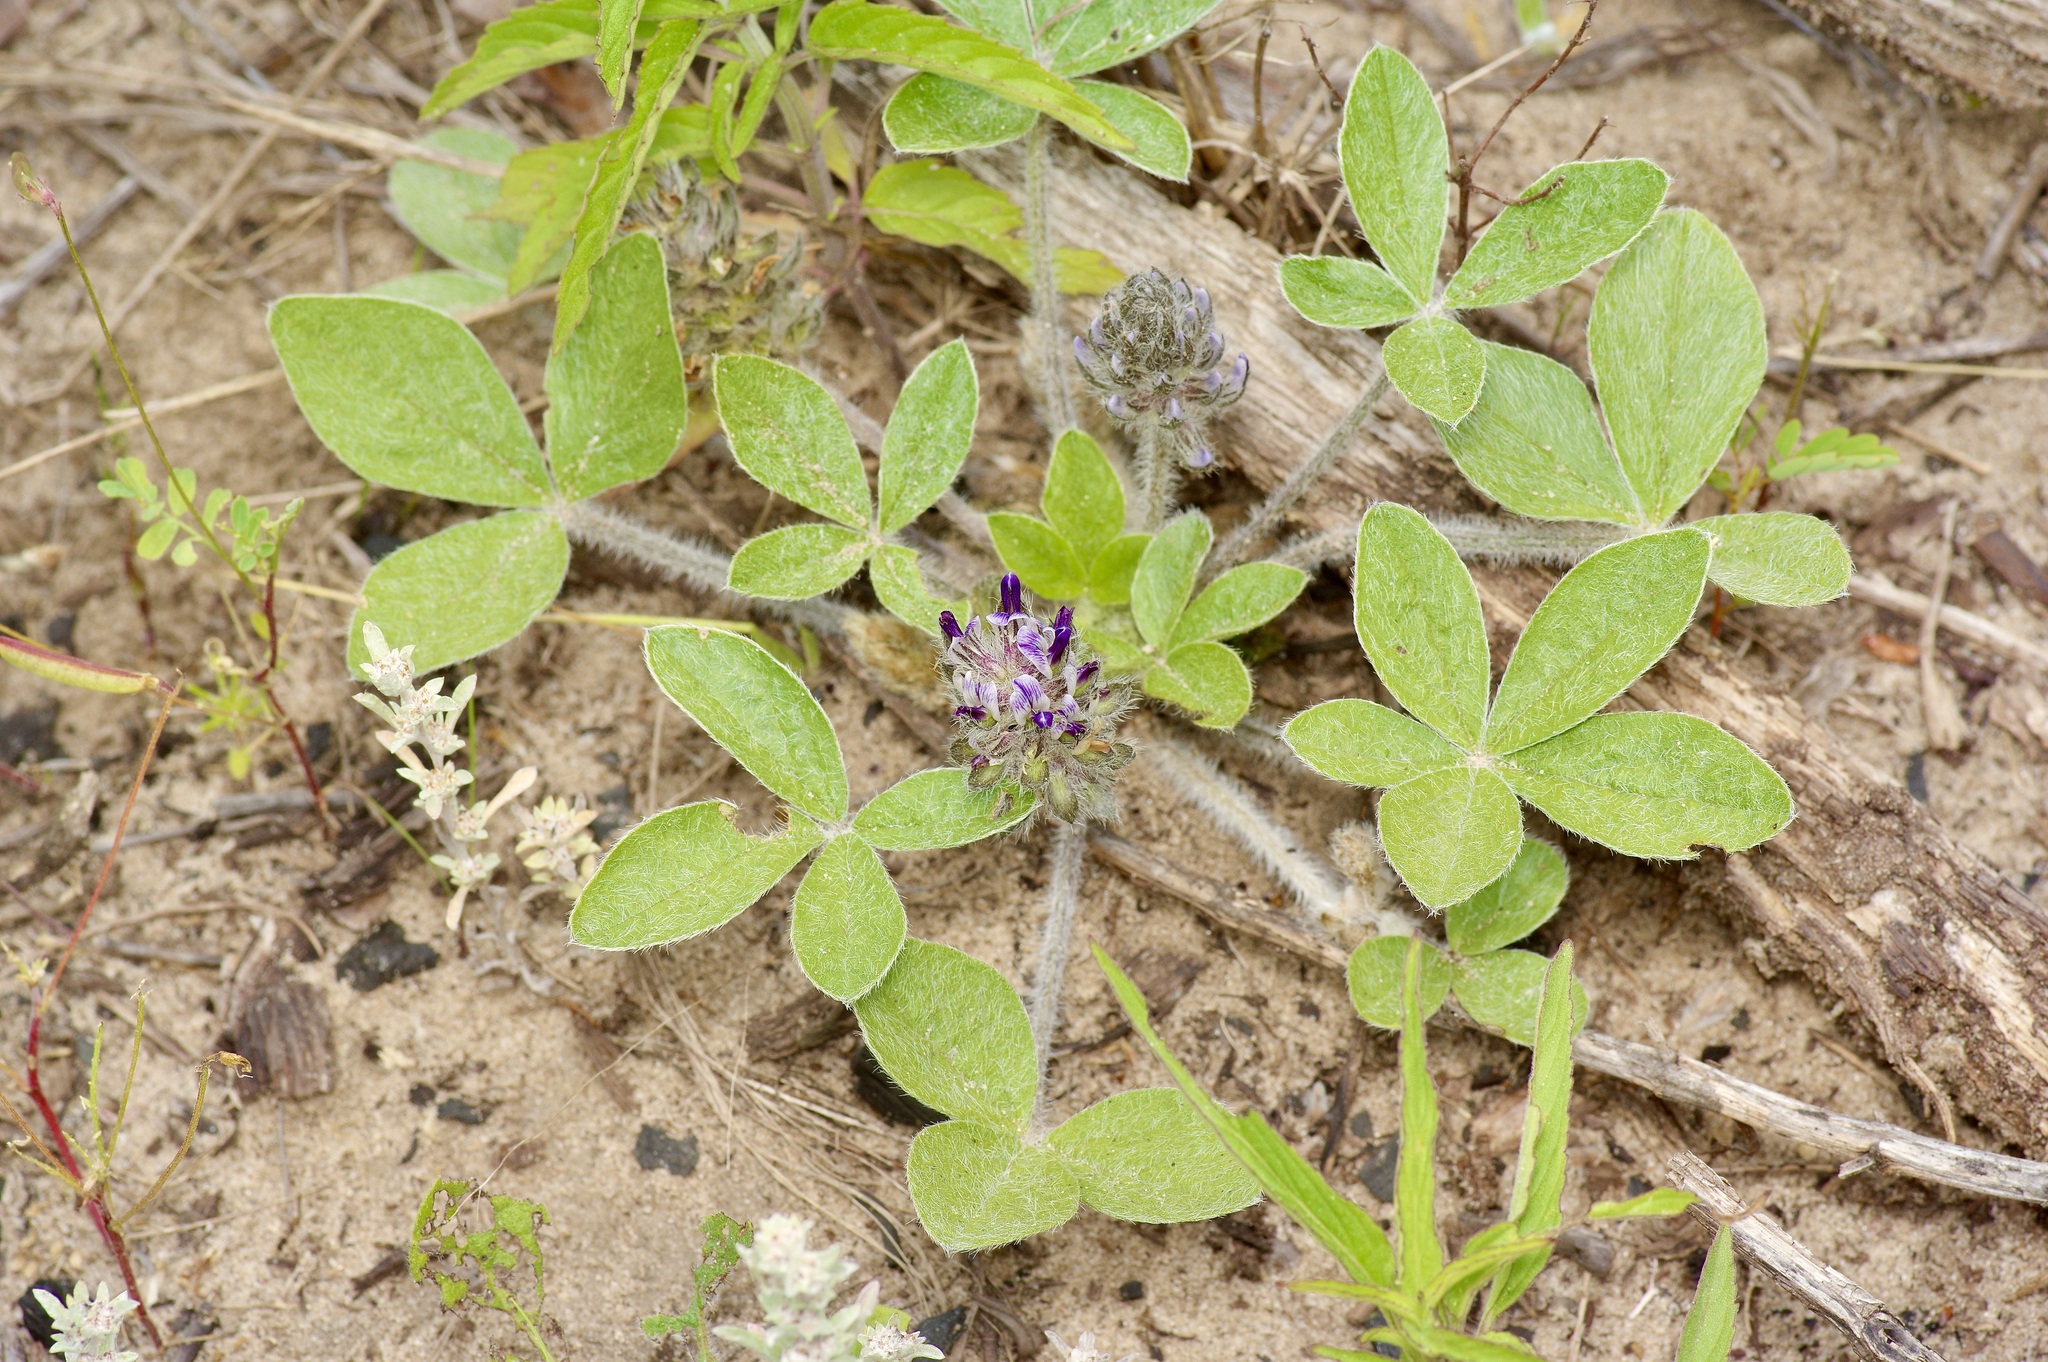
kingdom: Plantae
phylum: Tracheophyta
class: Magnoliopsida
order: Fabales
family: Fabaceae
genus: Pediomelum
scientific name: Pediomelum hypogaeum
